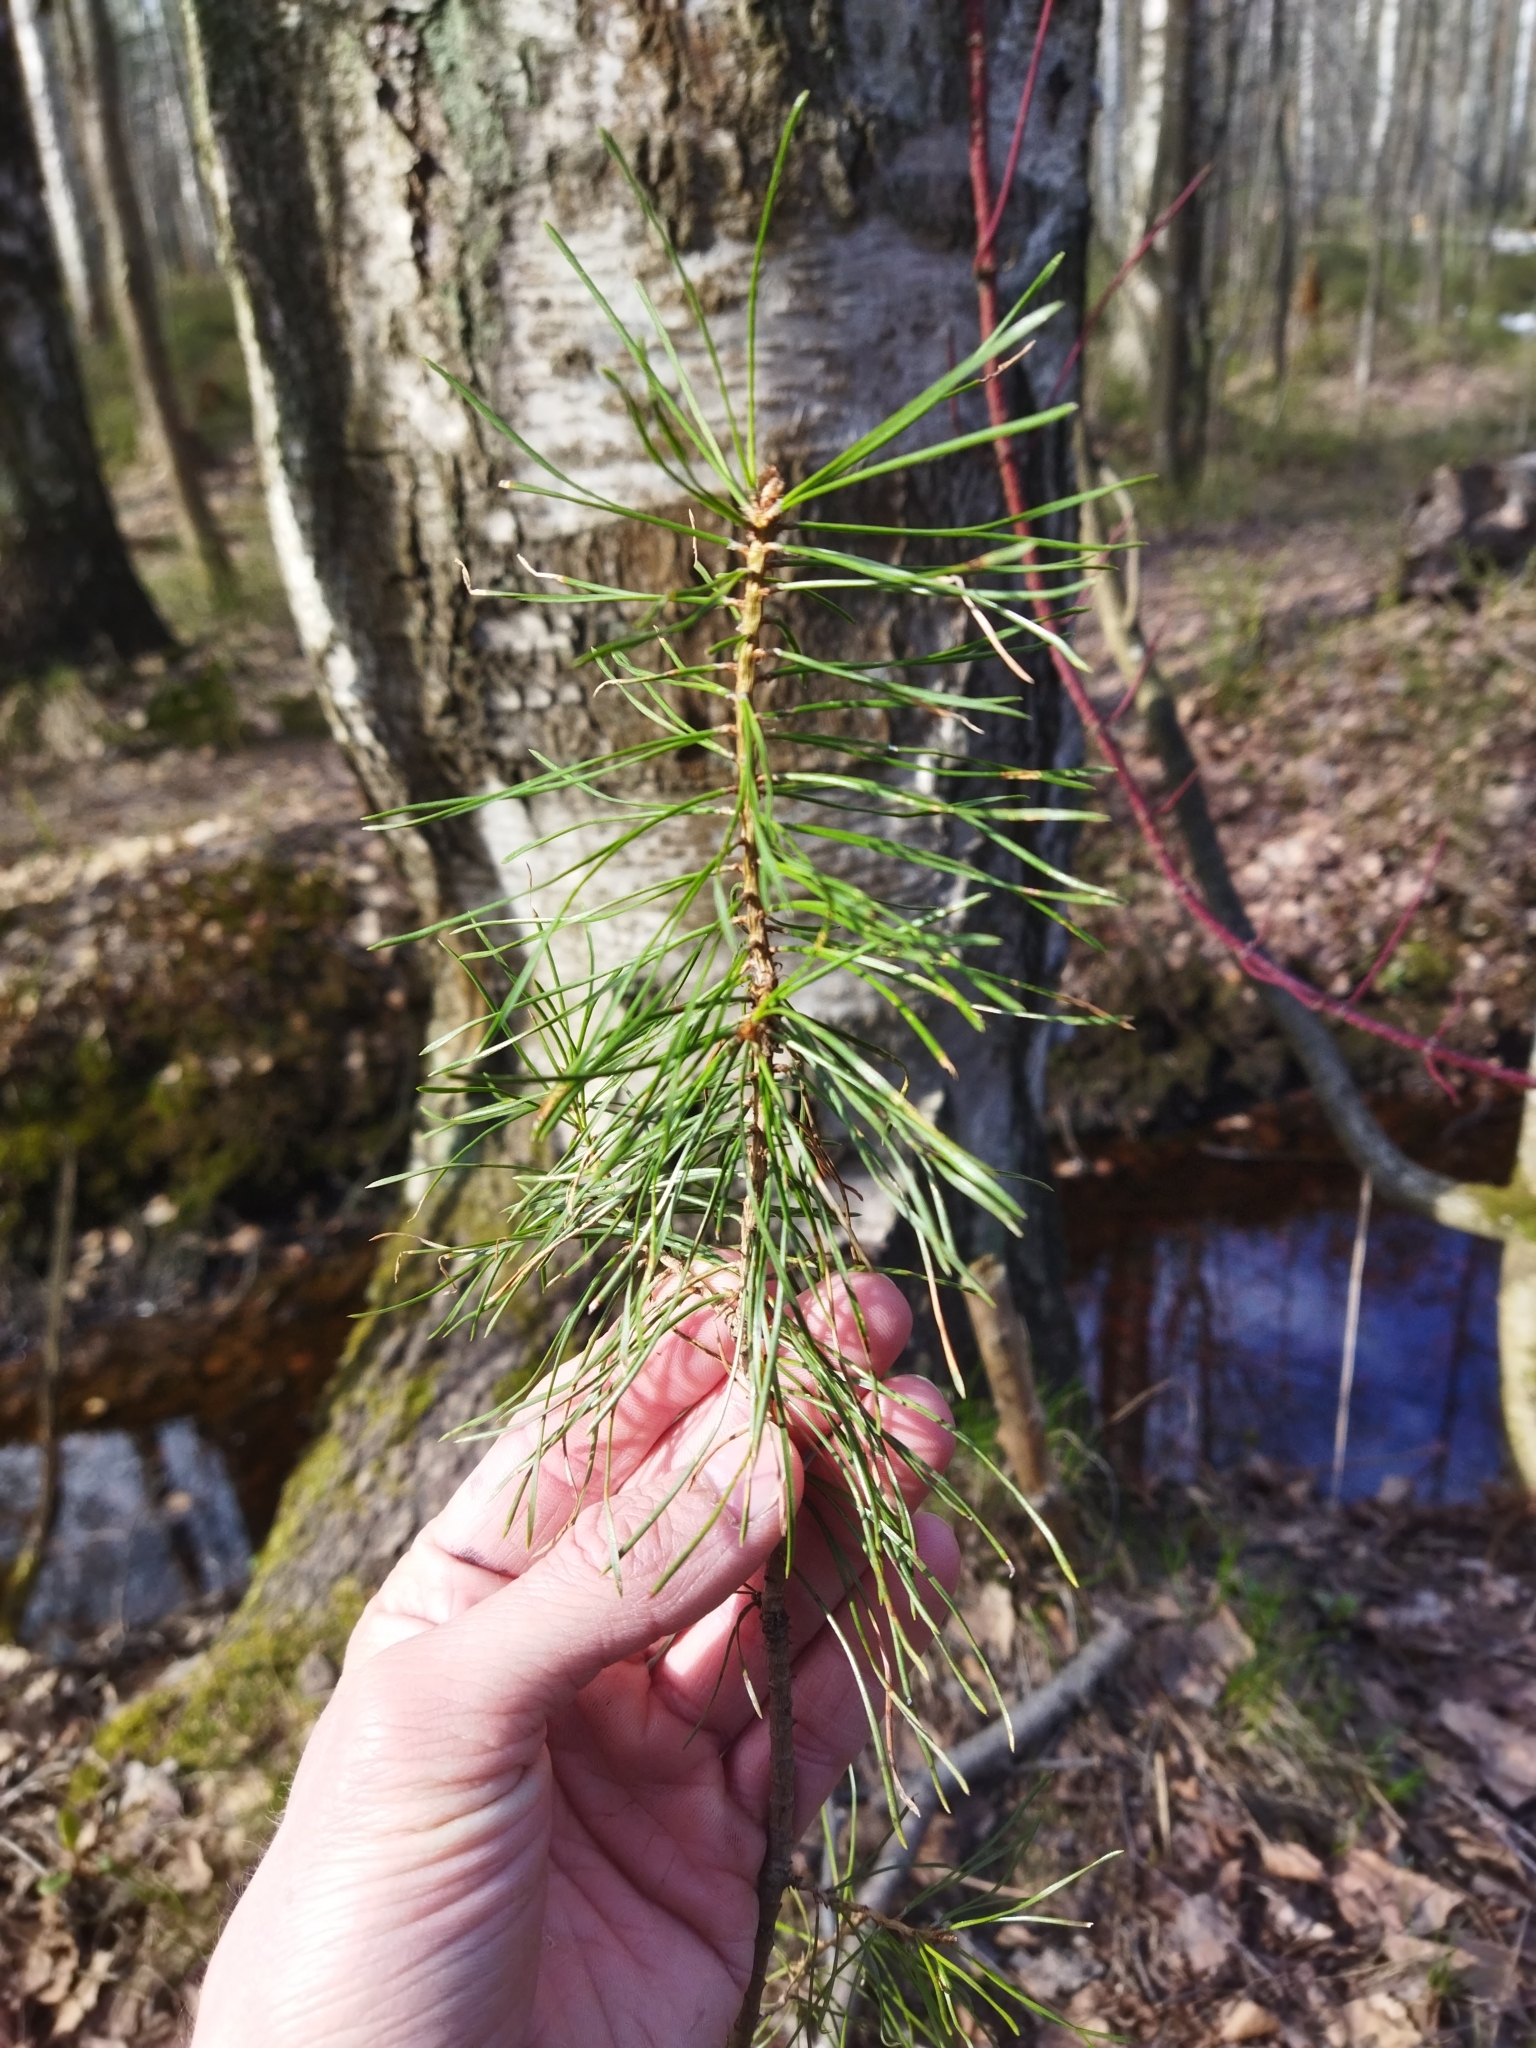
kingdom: Plantae
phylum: Tracheophyta
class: Pinopsida
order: Pinales
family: Pinaceae
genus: Pinus
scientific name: Pinus sylvestris
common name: Scots pine
